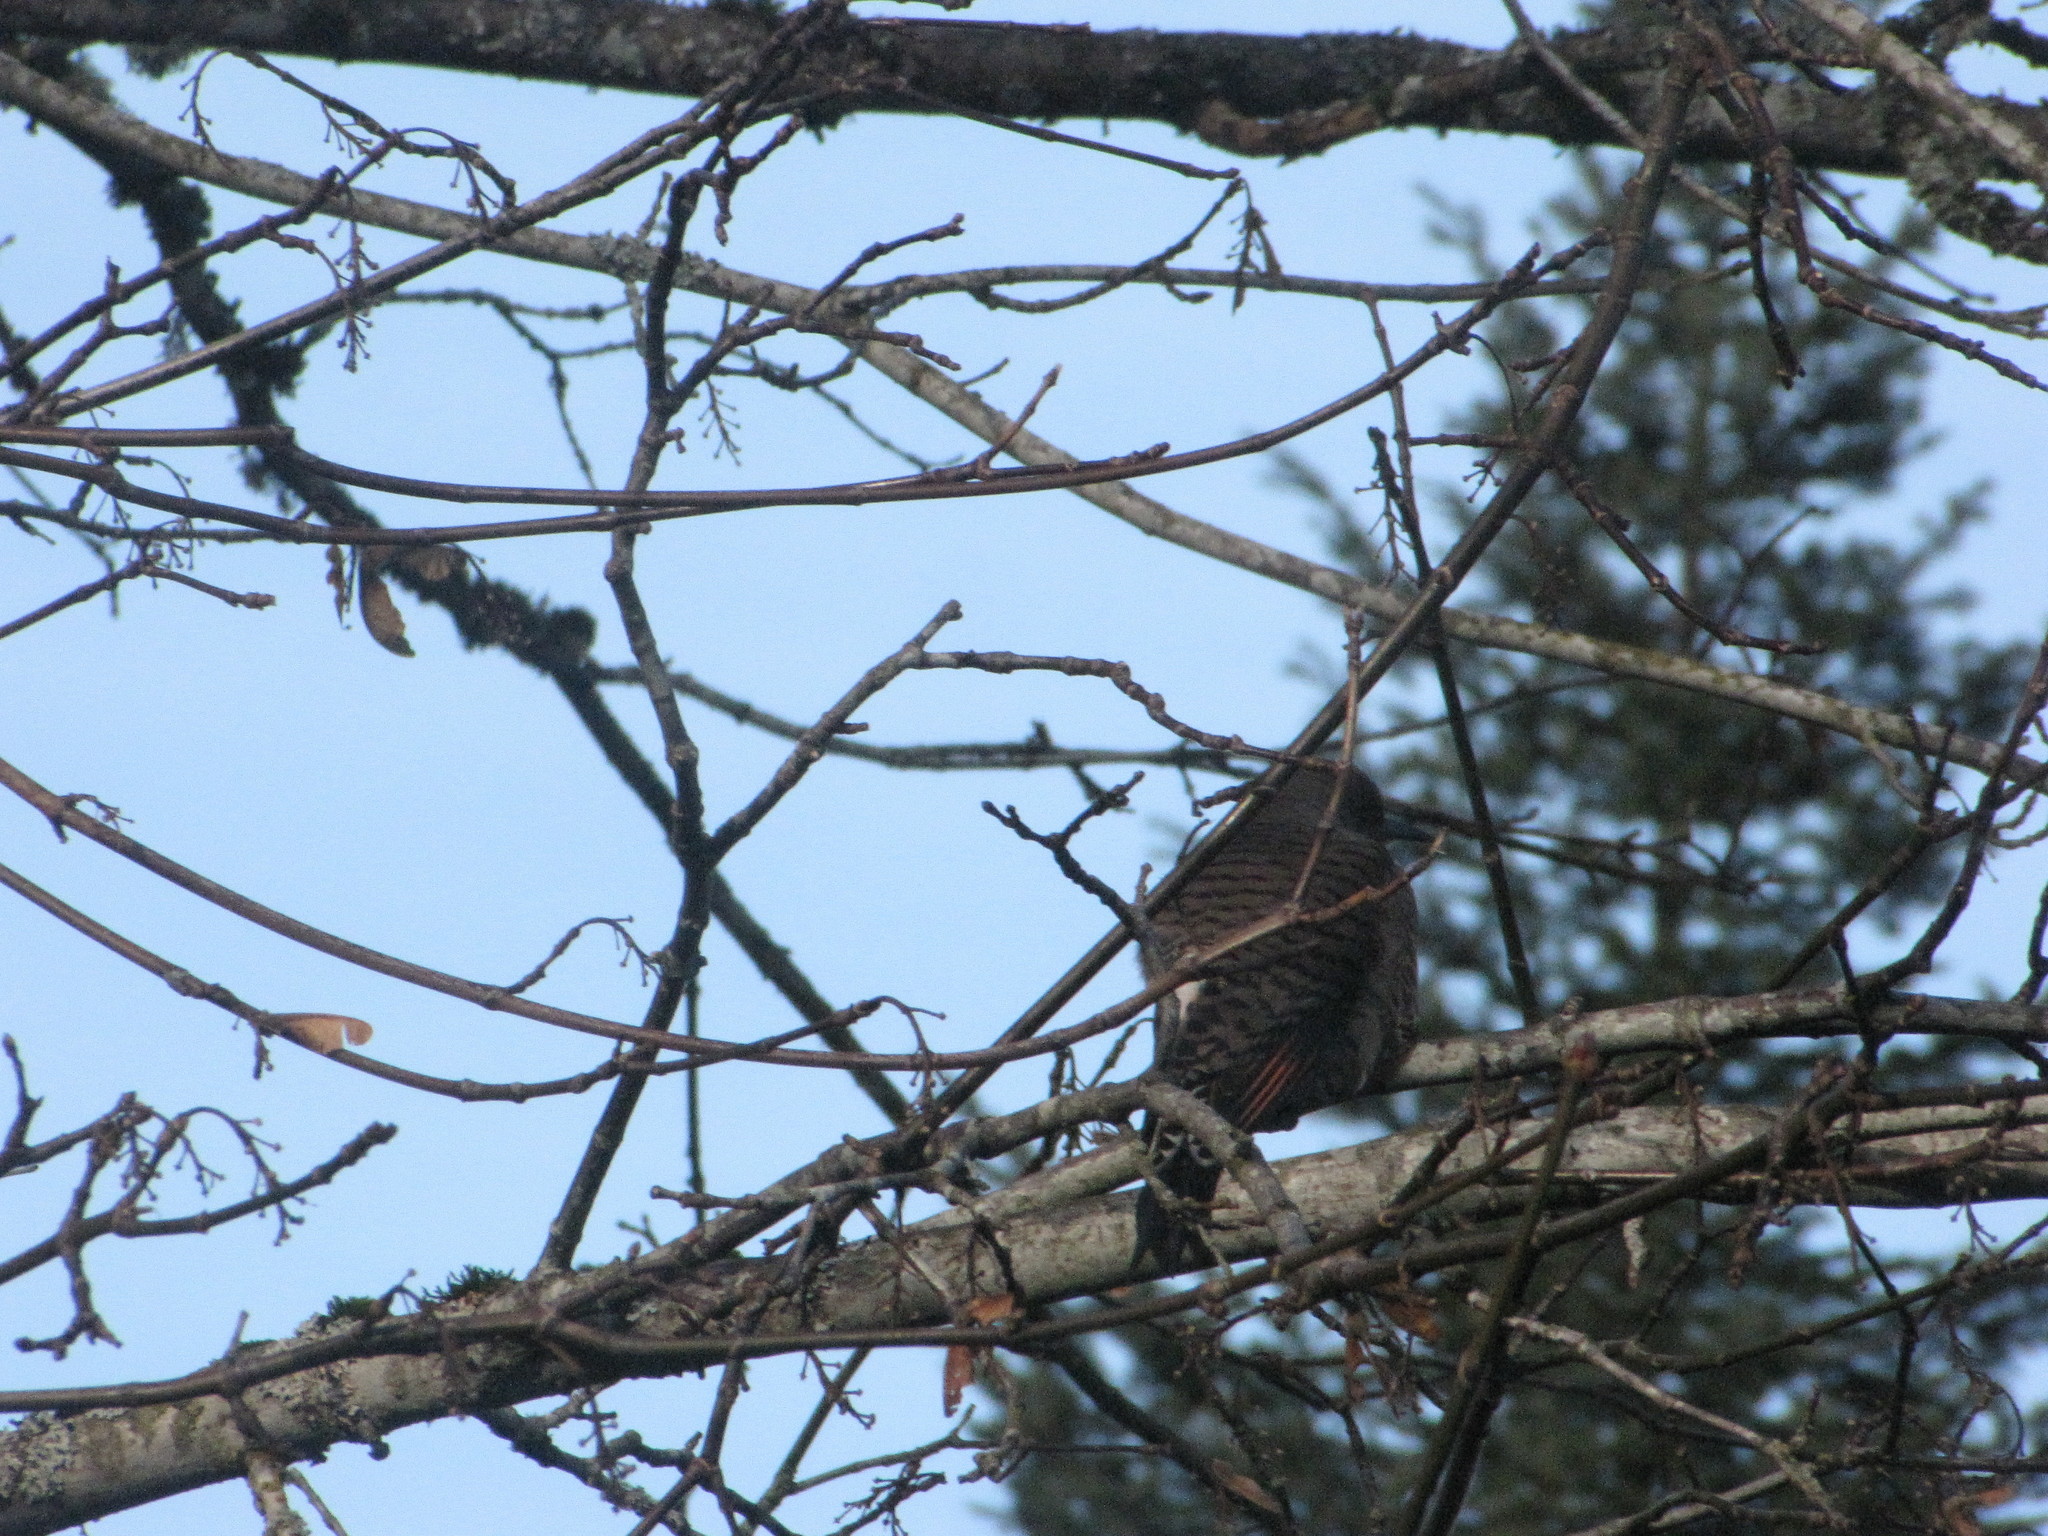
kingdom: Animalia
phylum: Chordata
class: Aves
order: Piciformes
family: Picidae
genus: Colaptes
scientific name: Colaptes auratus
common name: Northern flicker
